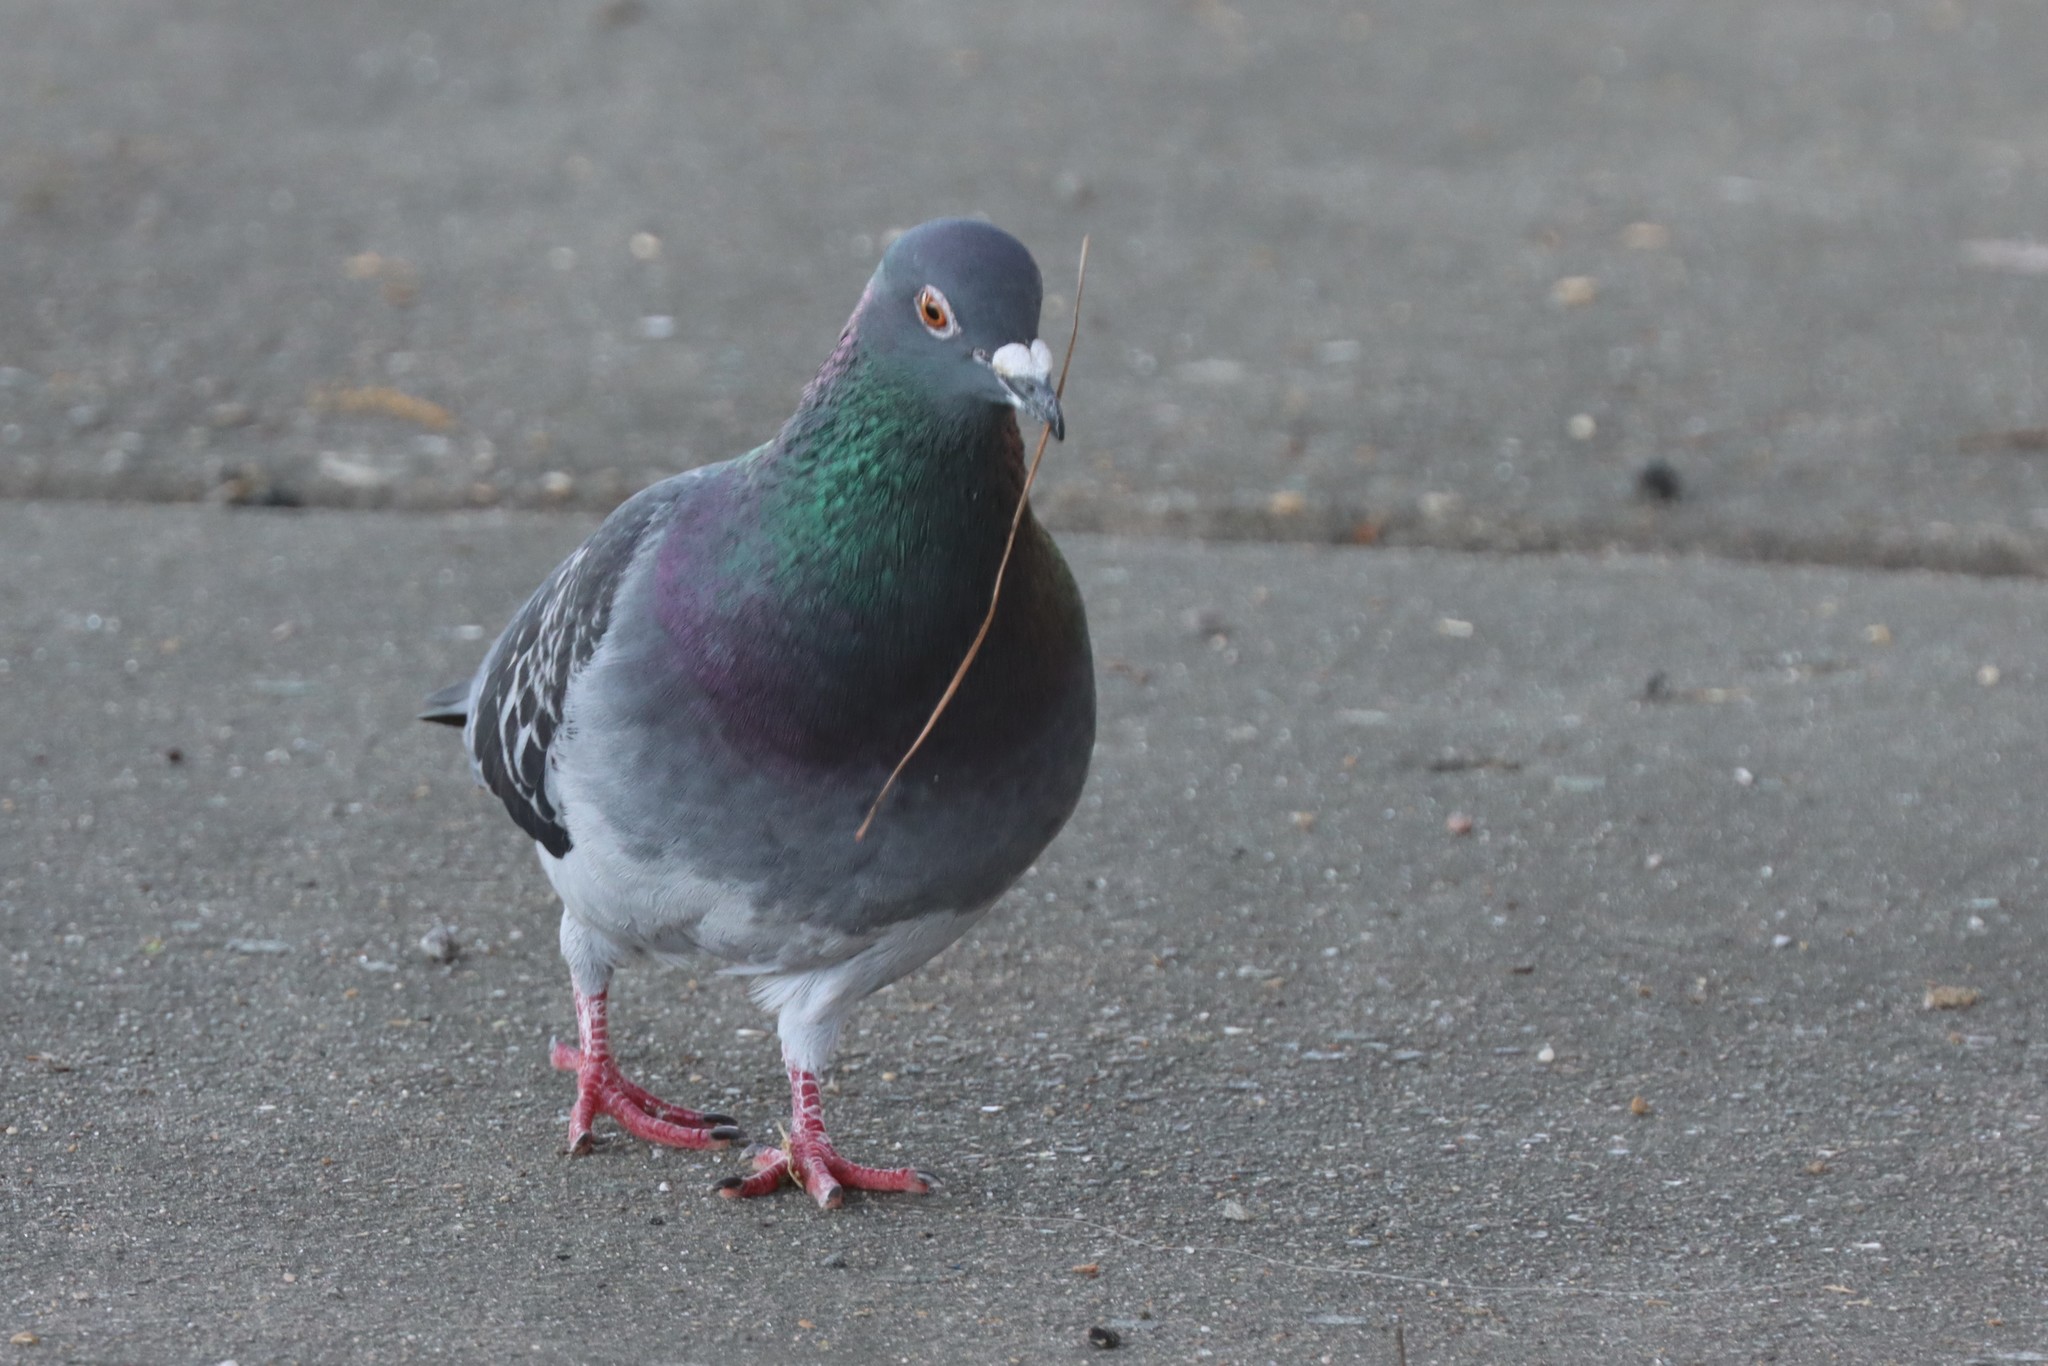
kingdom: Animalia
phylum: Chordata
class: Aves
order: Columbiformes
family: Columbidae
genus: Columba
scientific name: Columba livia
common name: Rock pigeon
